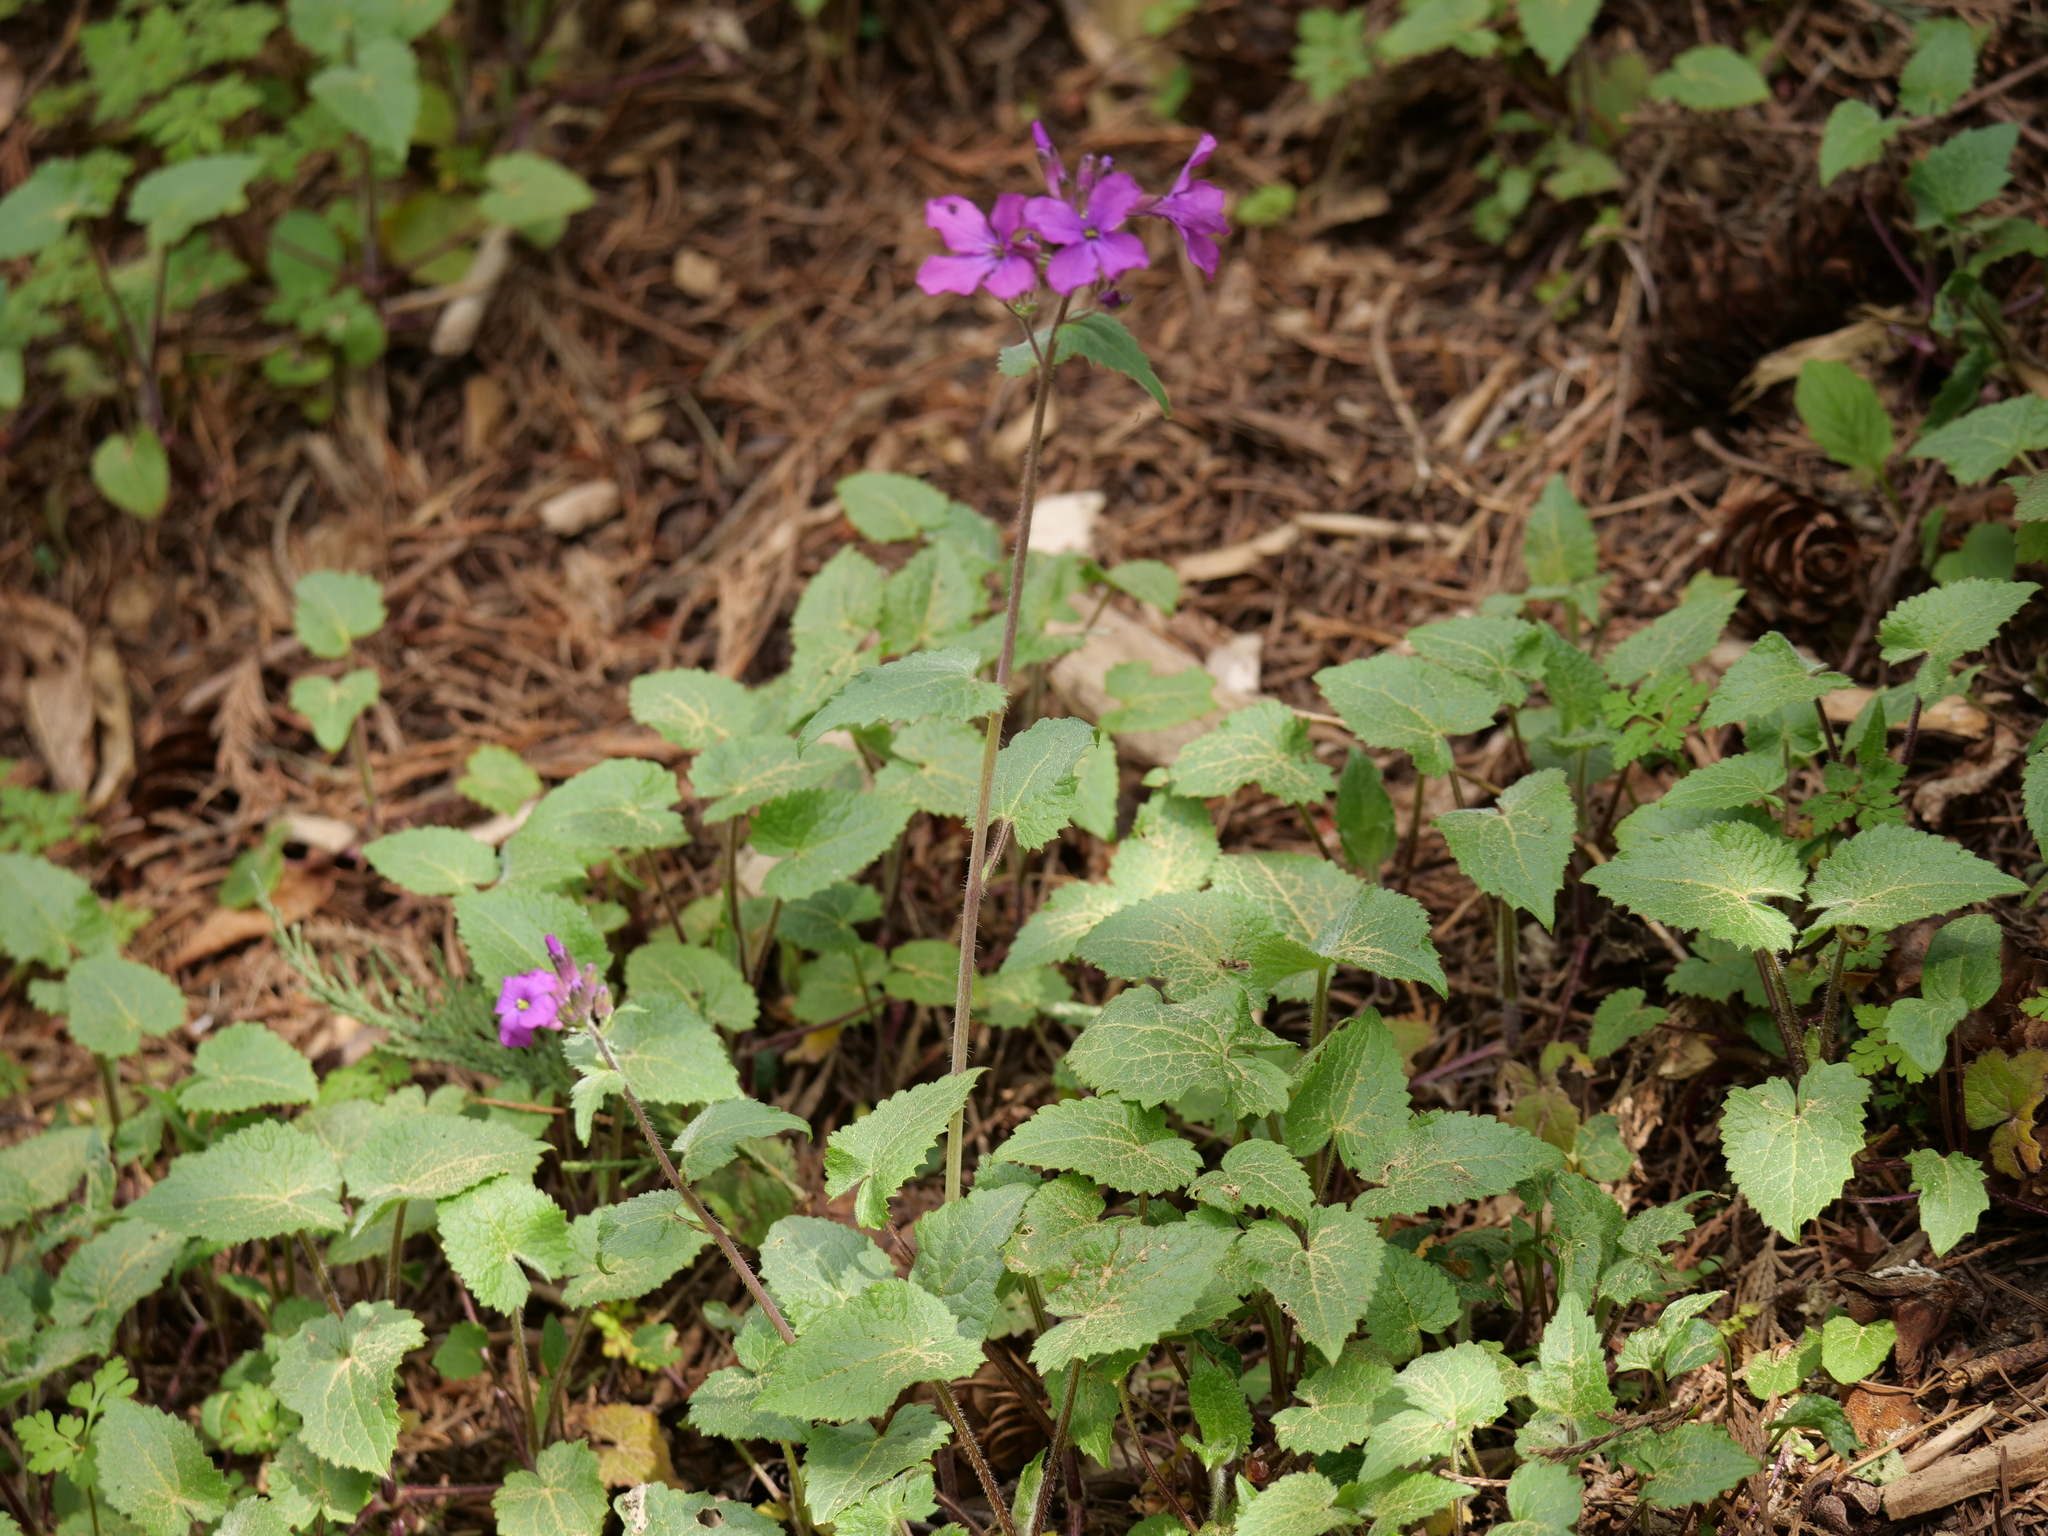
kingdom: Plantae
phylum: Tracheophyta
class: Magnoliopsida
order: Brassicales
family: Brassicaceae
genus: Lunaria
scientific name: Lunaria annua
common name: Honesty
